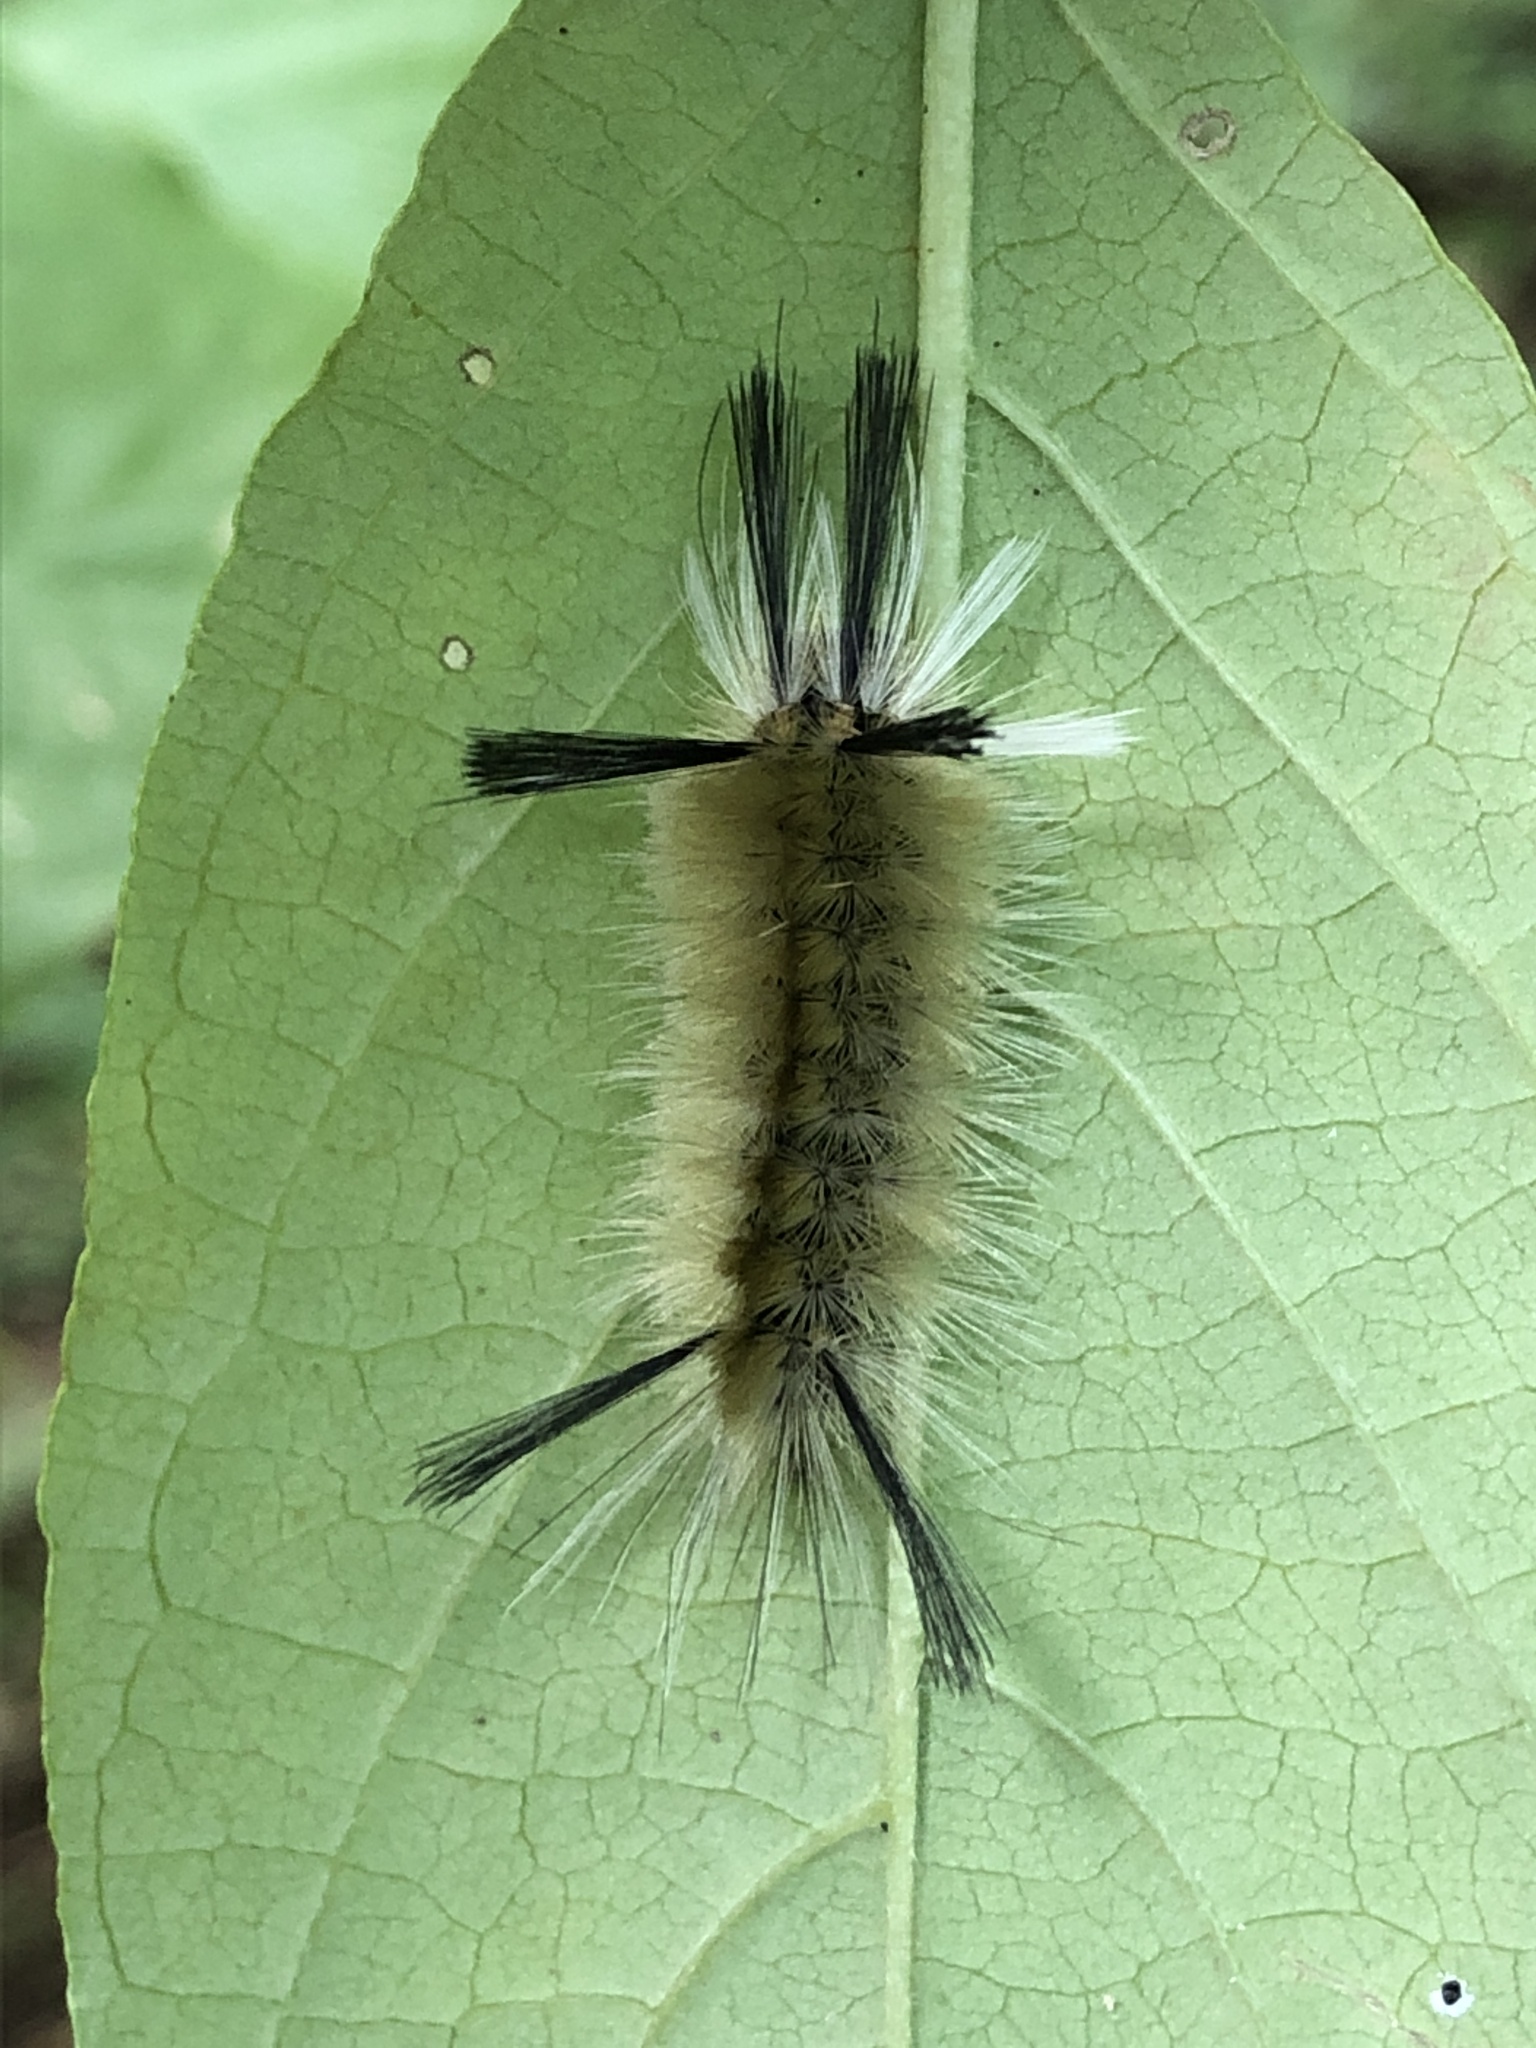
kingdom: Animalia
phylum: Arthropoda
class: Insecta
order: Lepidoptera
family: Erebidae
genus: Halysidota
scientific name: Halysidota tessellaris
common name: Banded tussock moth
